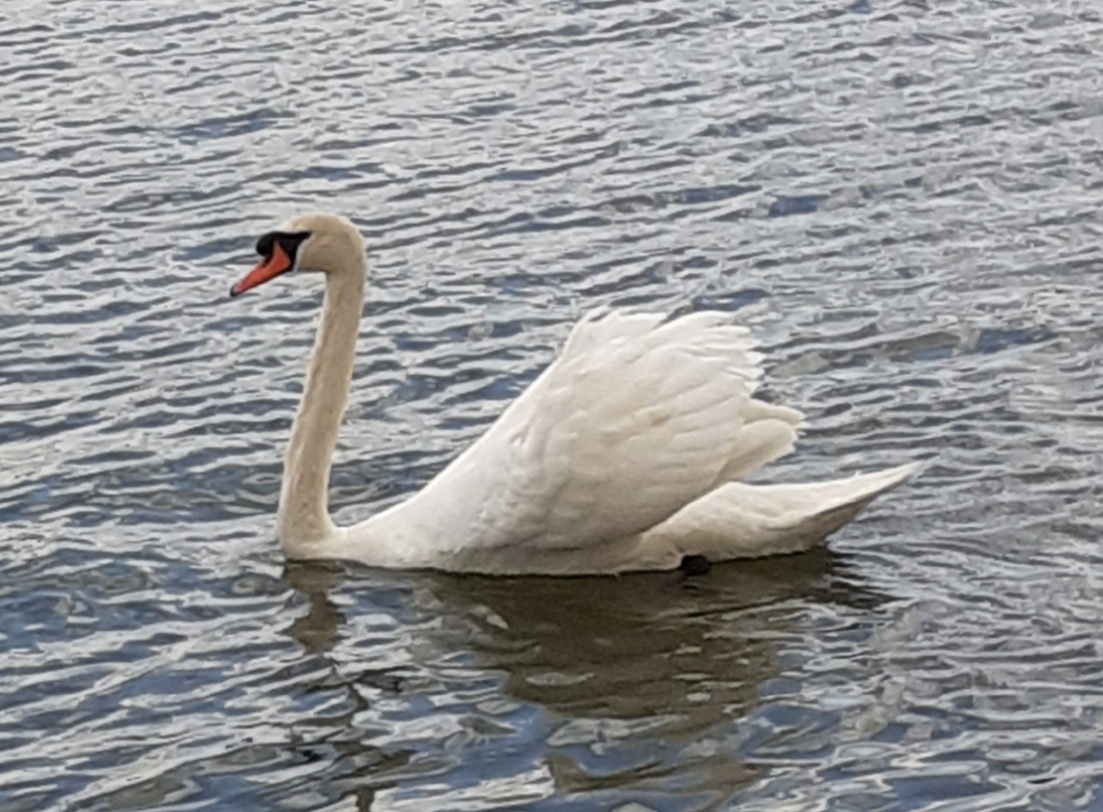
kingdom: Animalia
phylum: Chordata
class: Aves
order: Anseriformes
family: Anatidae
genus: Cygnus
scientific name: Cygnus olor
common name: Mute swan
